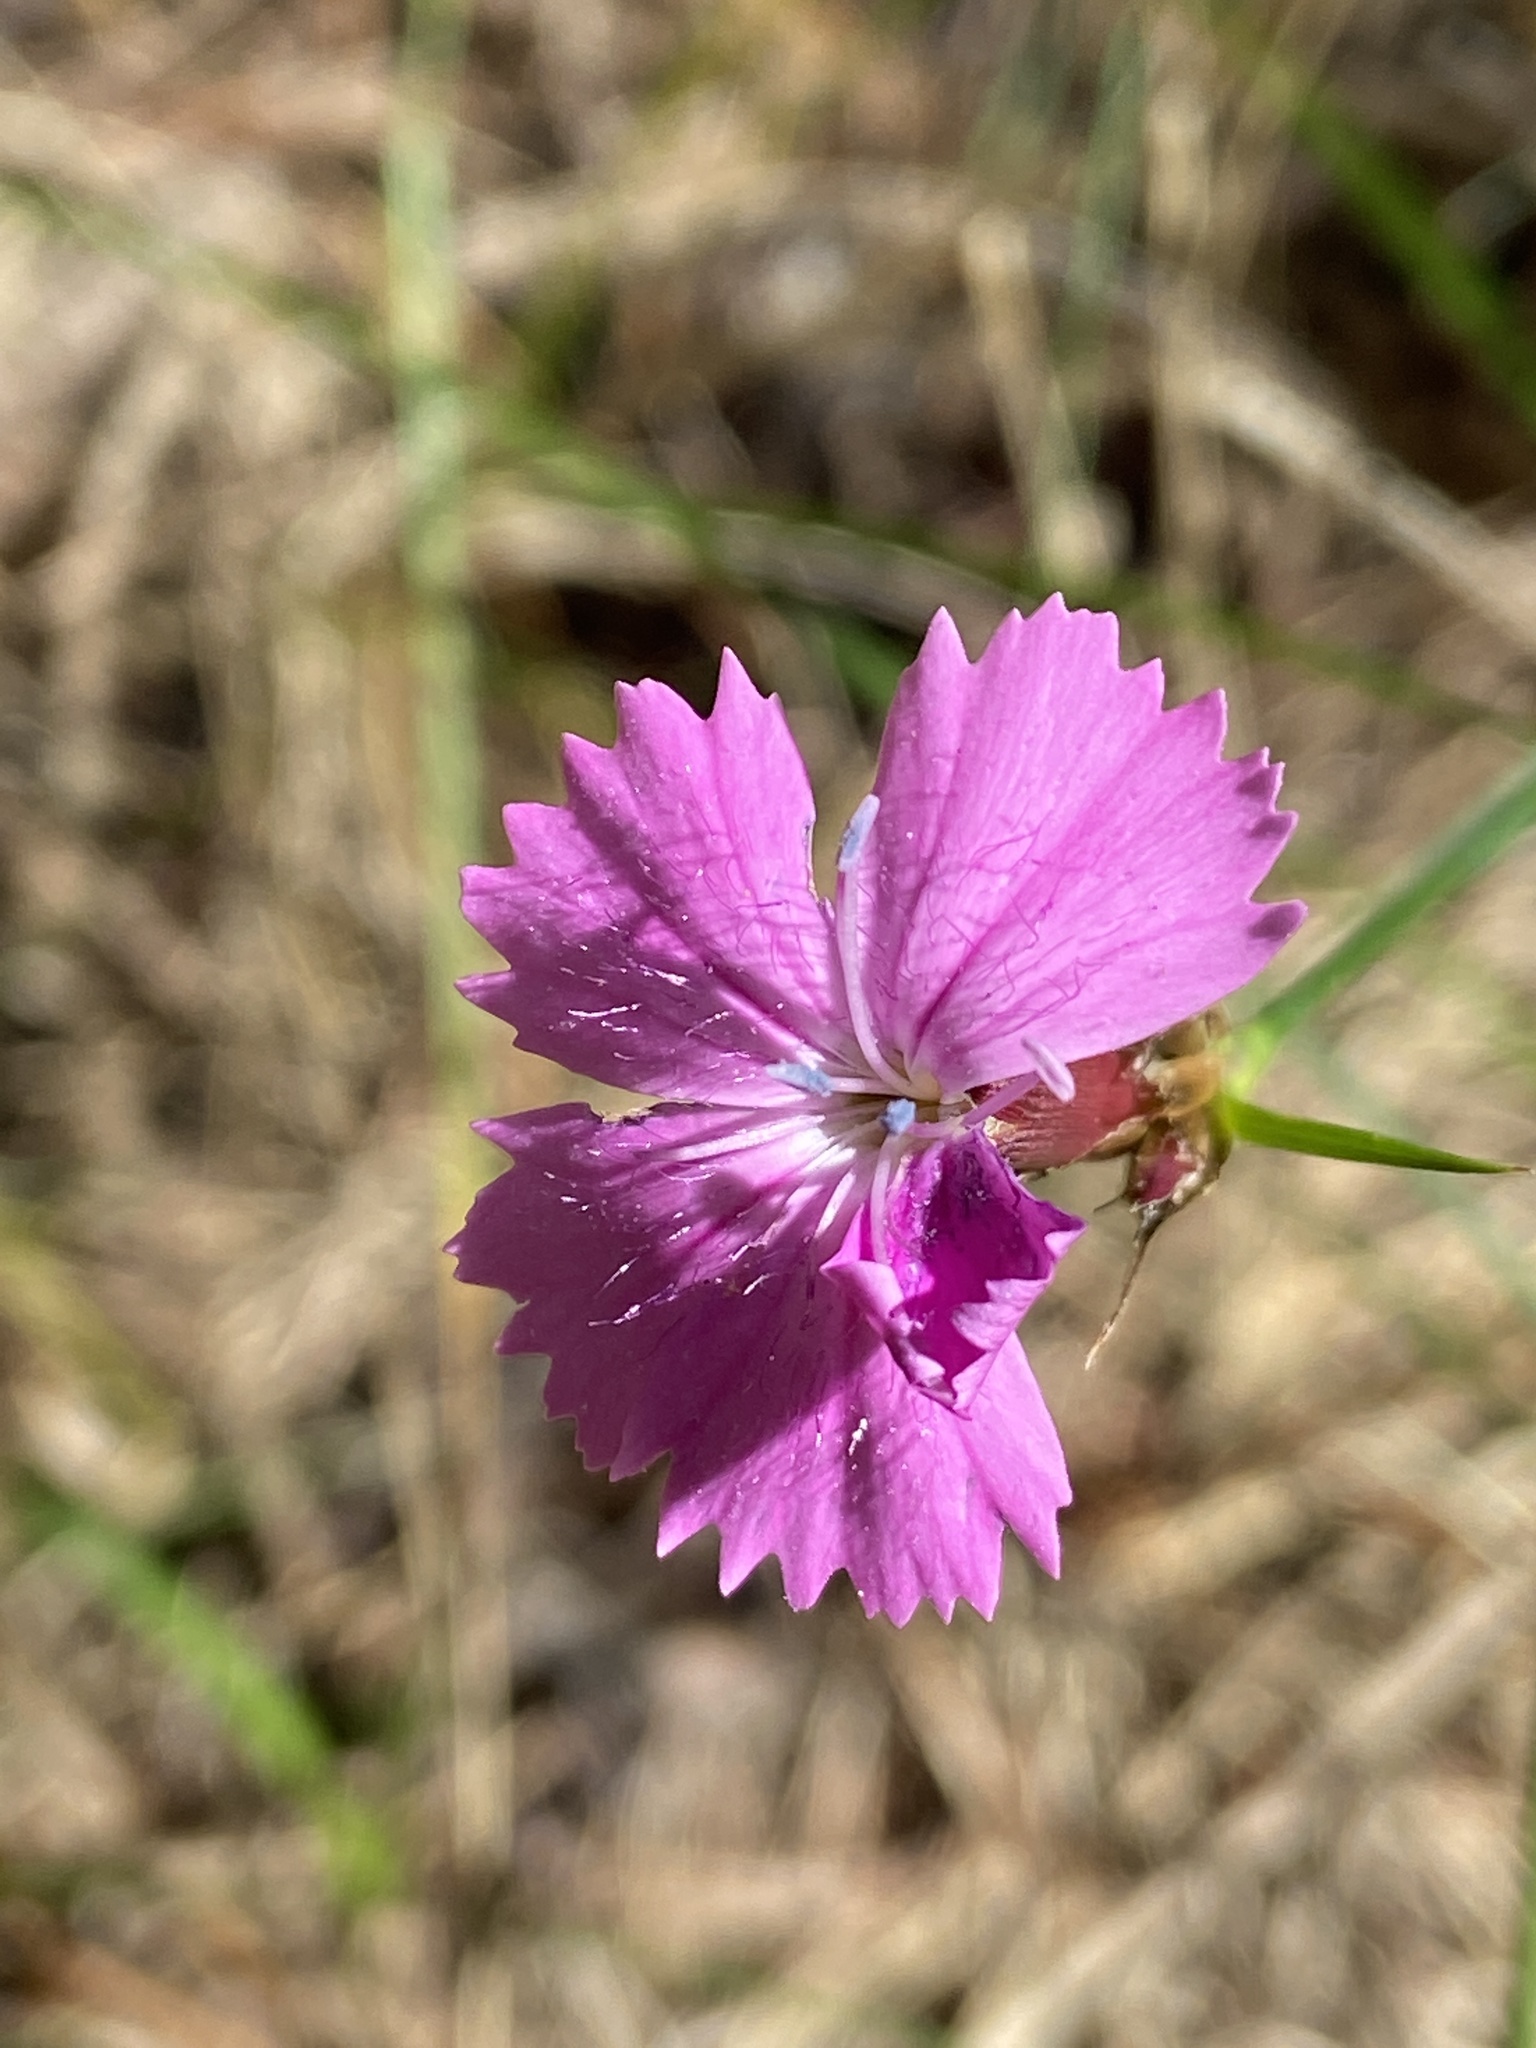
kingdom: Plantae
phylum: Tracheophyta
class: Magnoliopsida
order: Caryophyllales
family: Caryophyllaceae
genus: Dianthus
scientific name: Dianthus carthusianorum
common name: Carthusian pink
